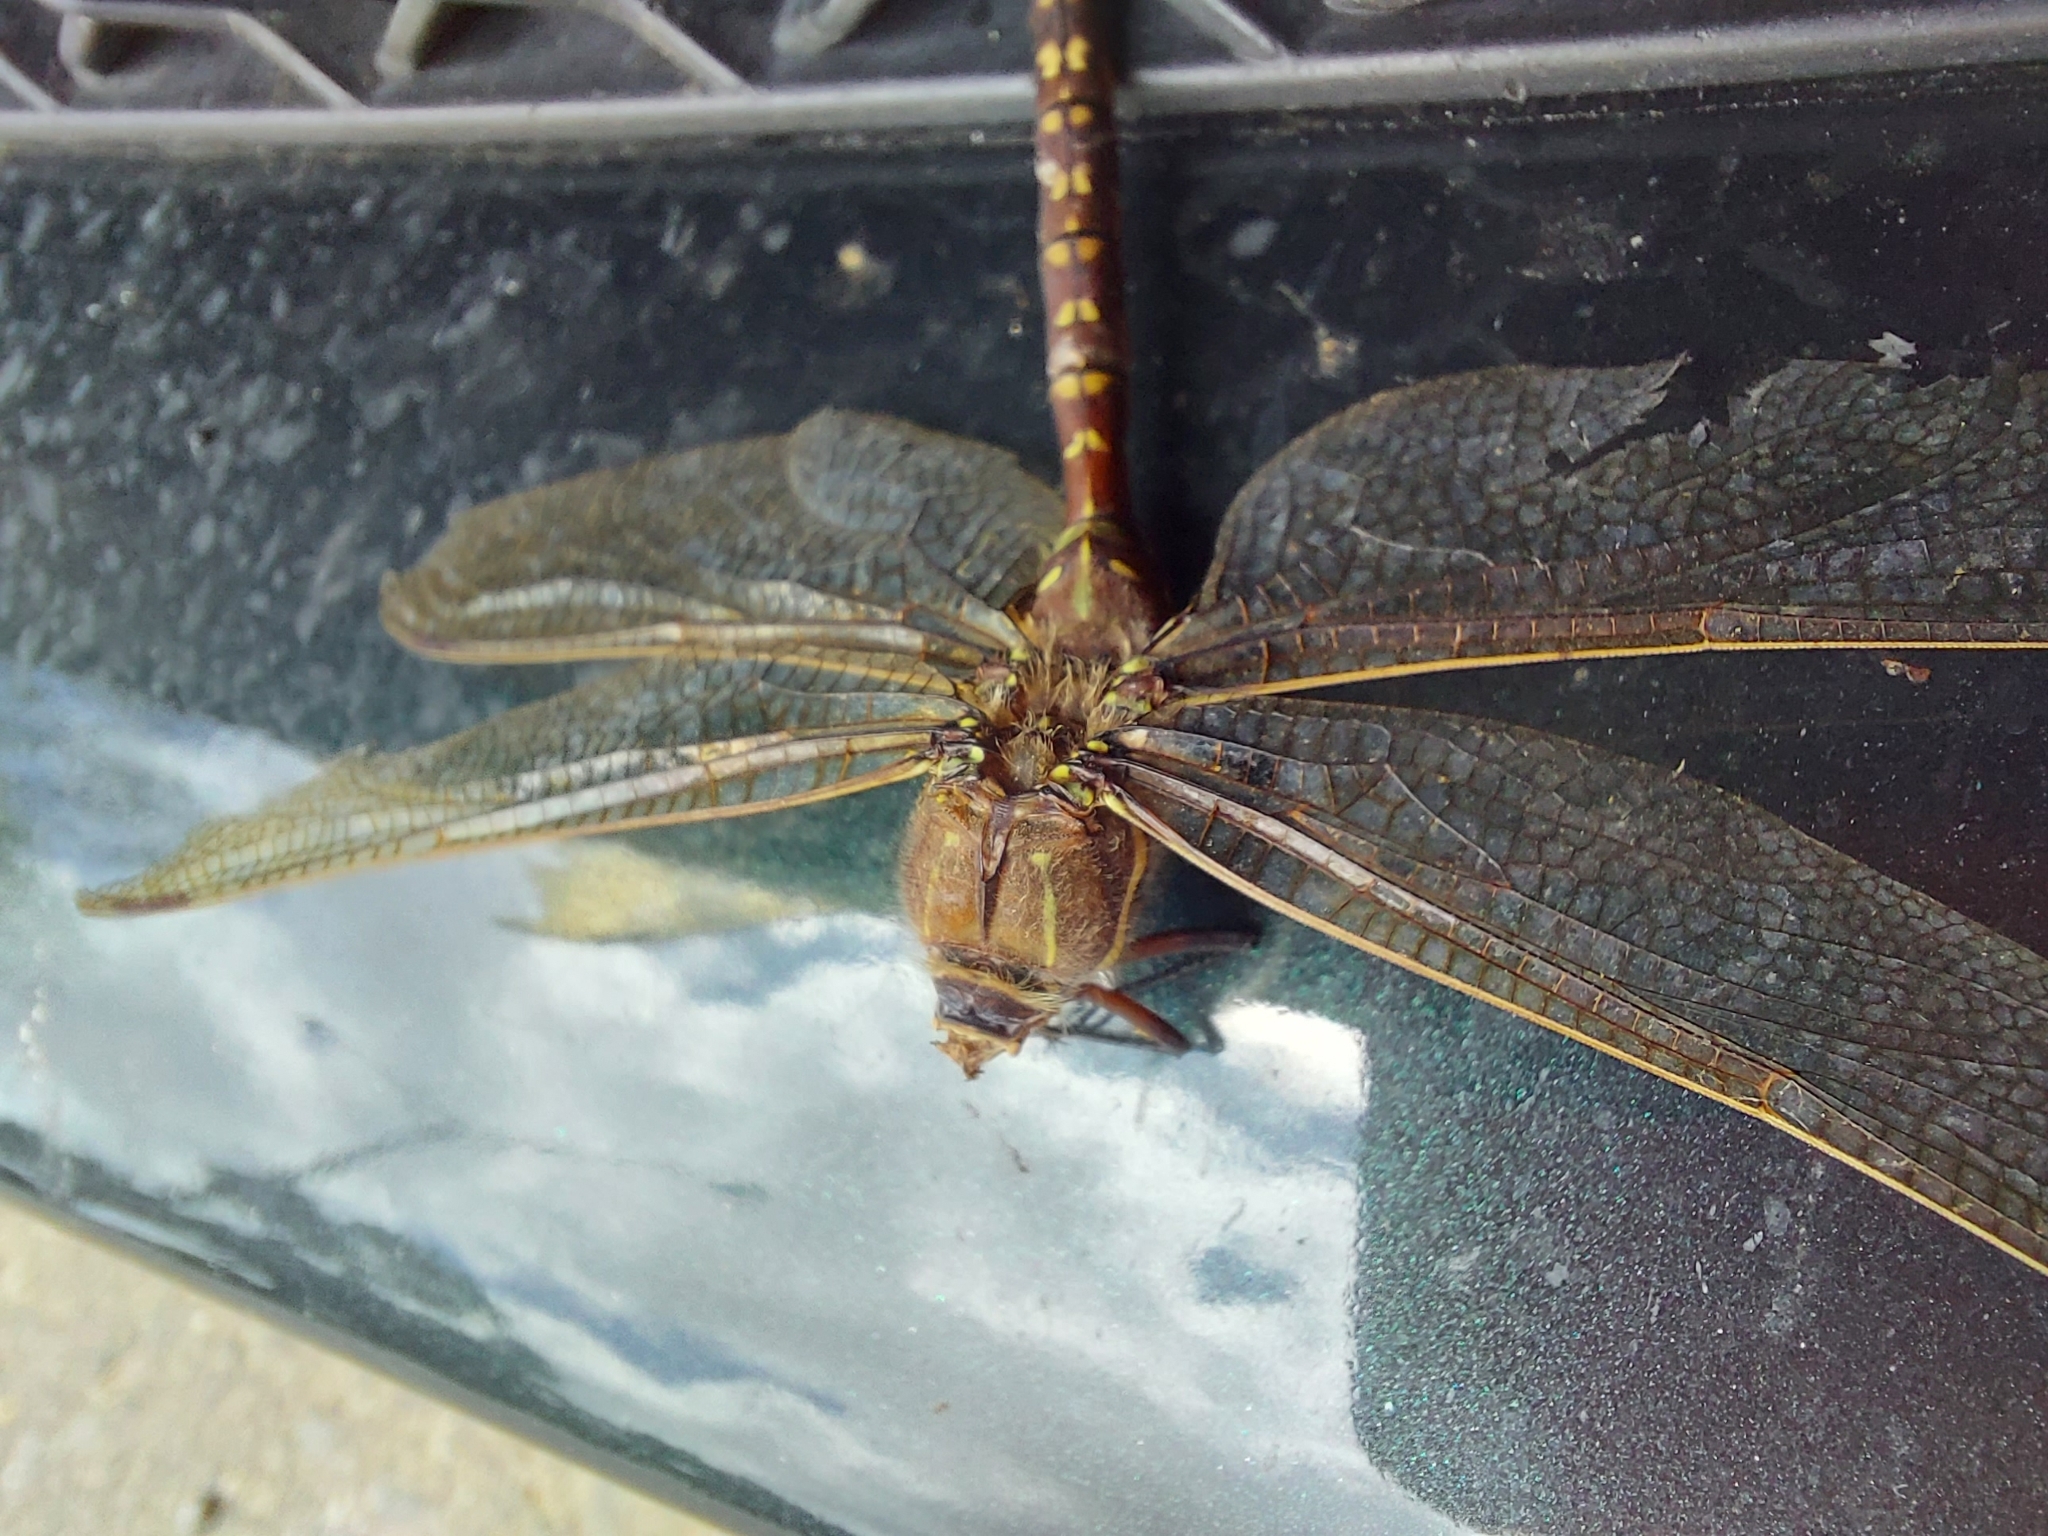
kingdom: Animalia
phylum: Arthropoda
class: Insecta
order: Odonata
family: Aeshnidae
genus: Aeshna
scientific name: Aeshna brevistyla
